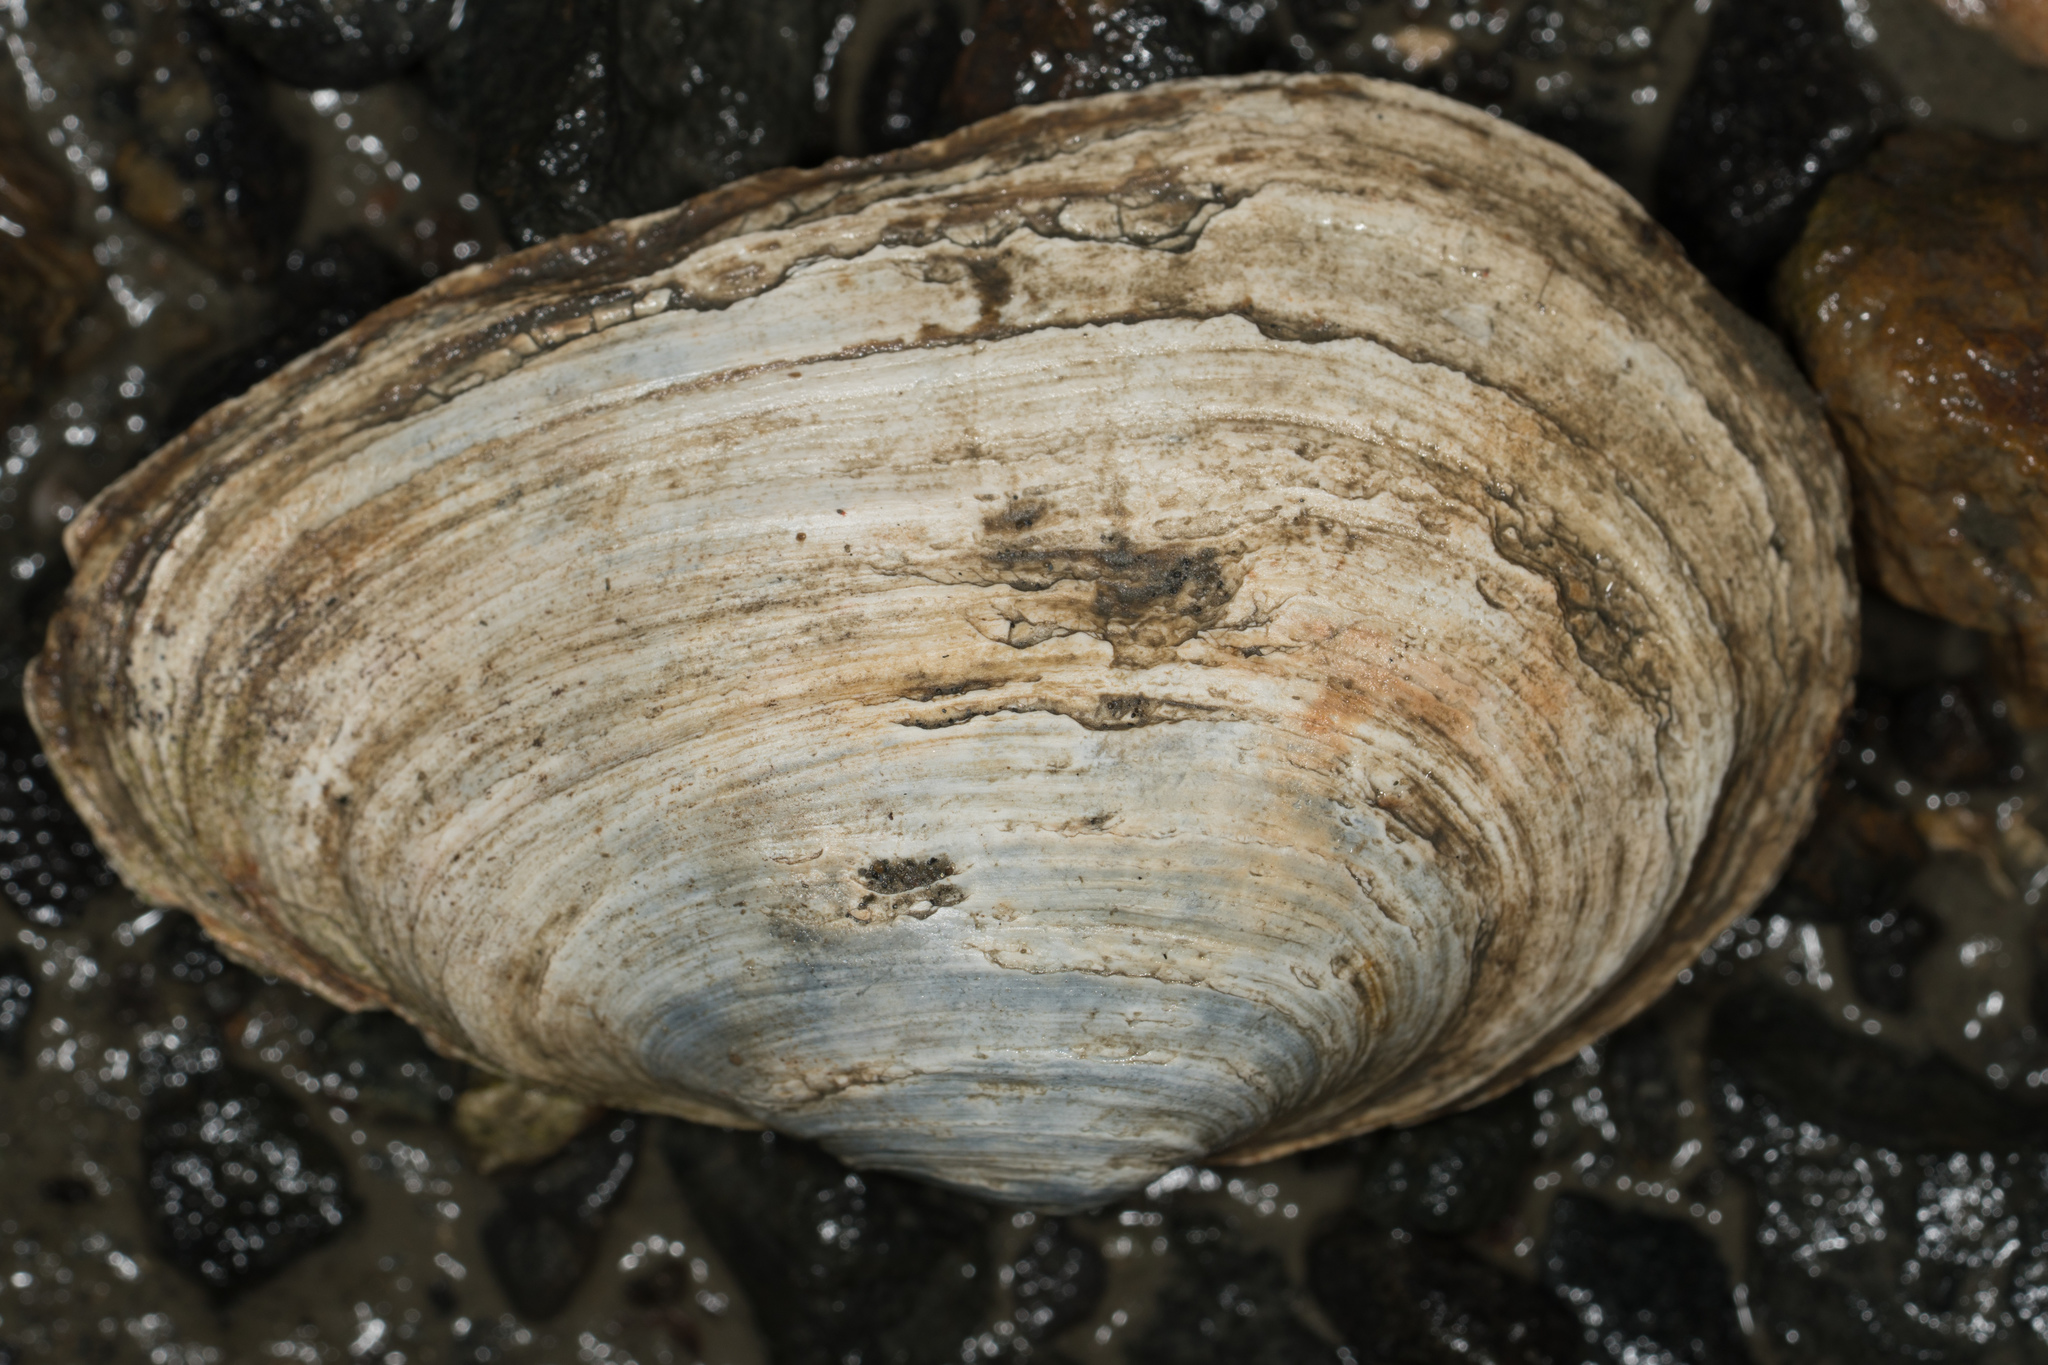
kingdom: Animalia
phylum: Mollusca
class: Bivalvia
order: Myida
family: Myidae
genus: Mya
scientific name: Mya arenaria
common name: Soft-shelled clam
